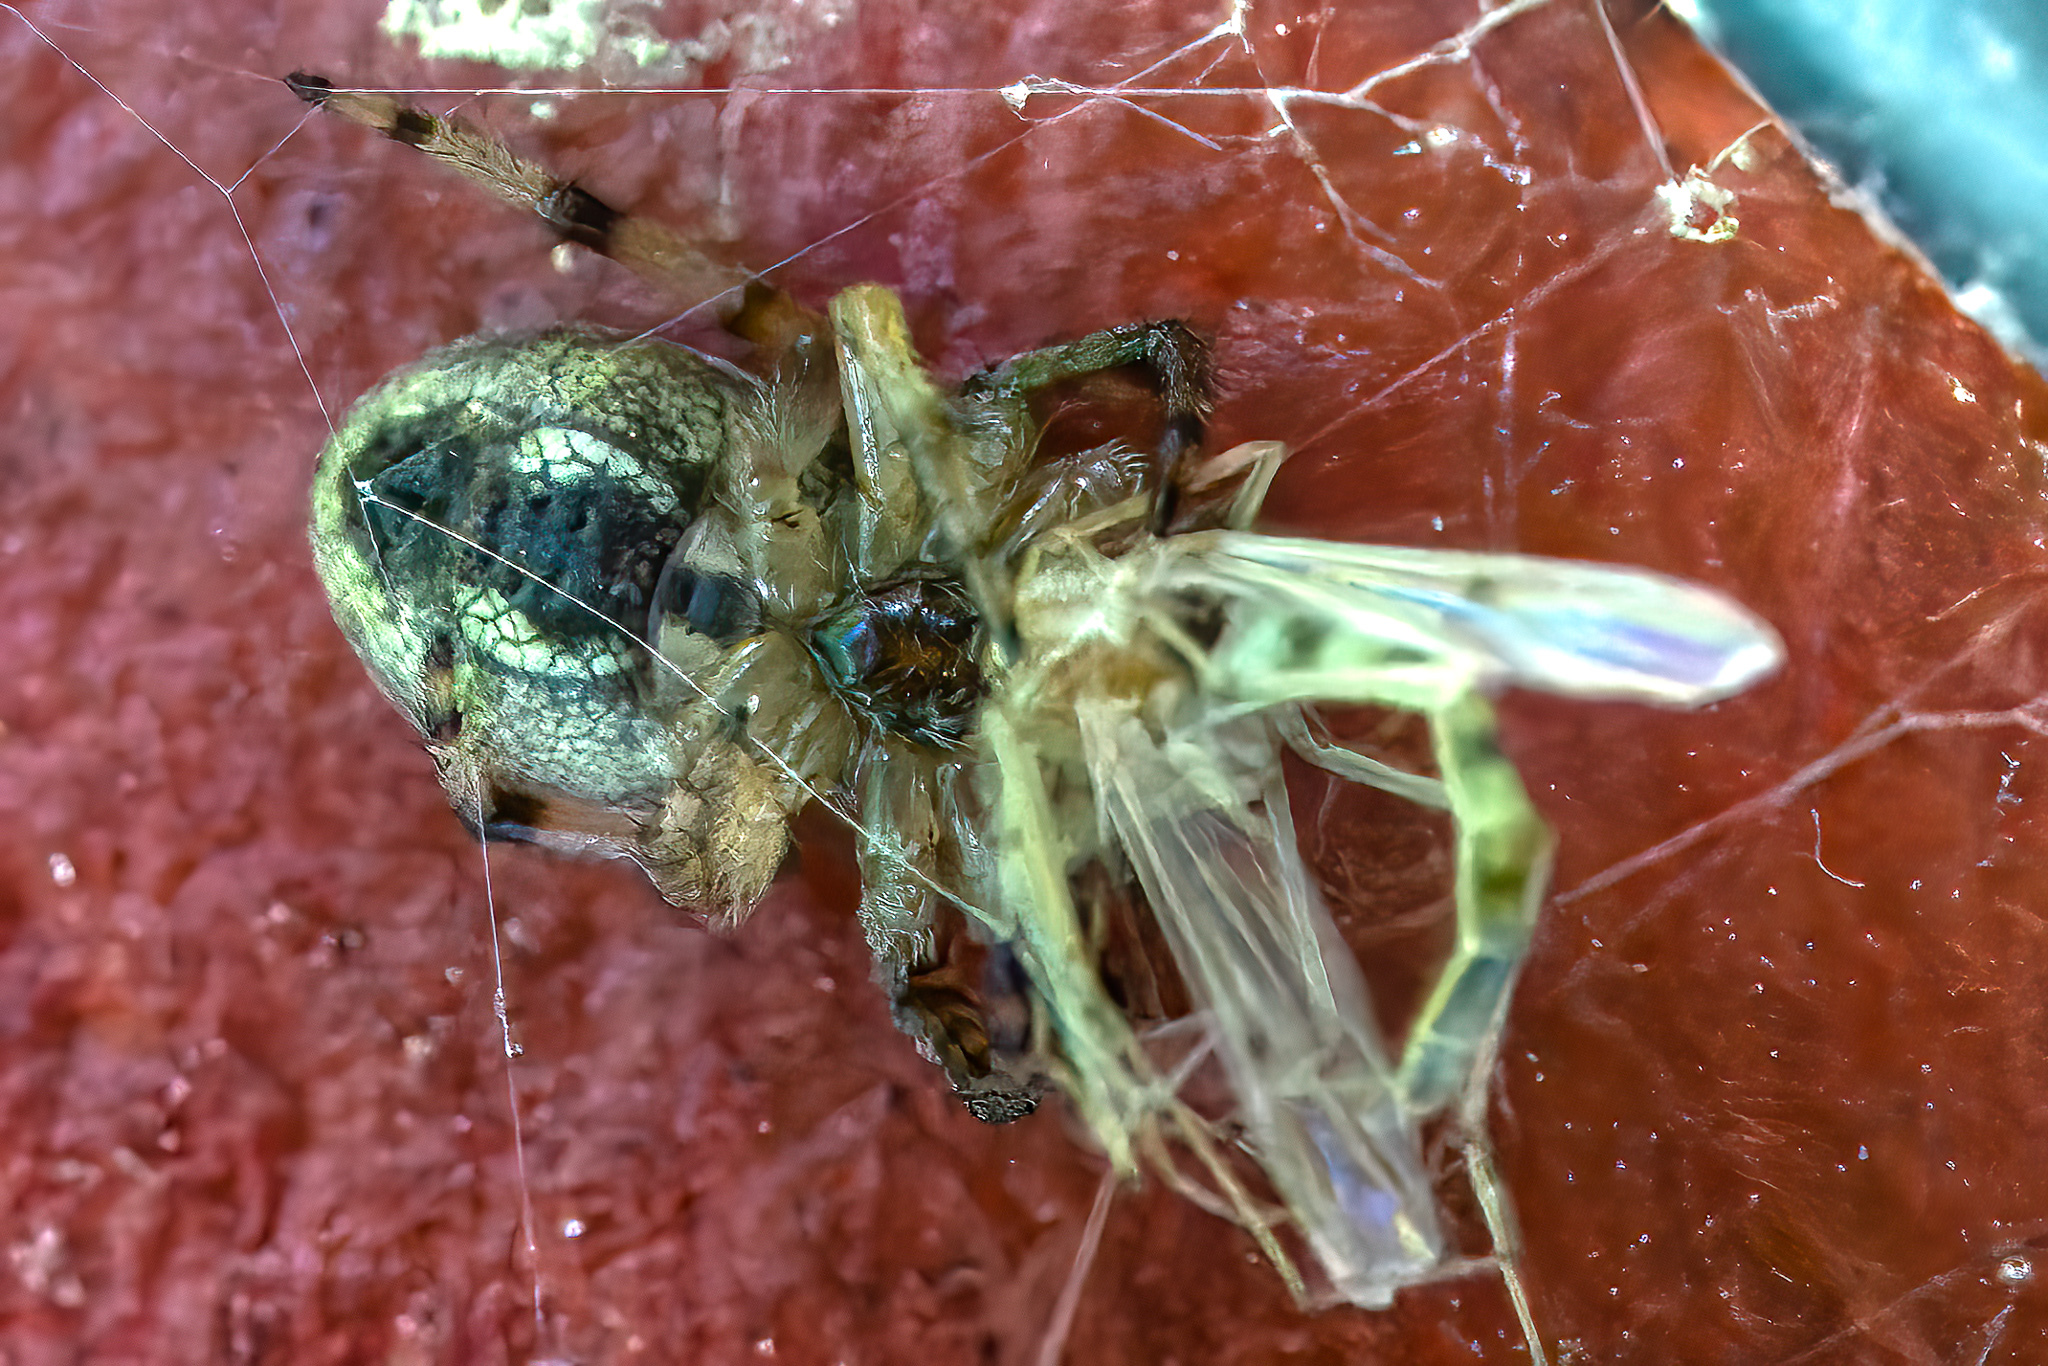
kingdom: Animalia
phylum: Arthropoda
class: Arachnida
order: Araneae
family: Araneidae
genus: Larinioides
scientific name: Larinioides cornutus
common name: Furrow orbweaver
